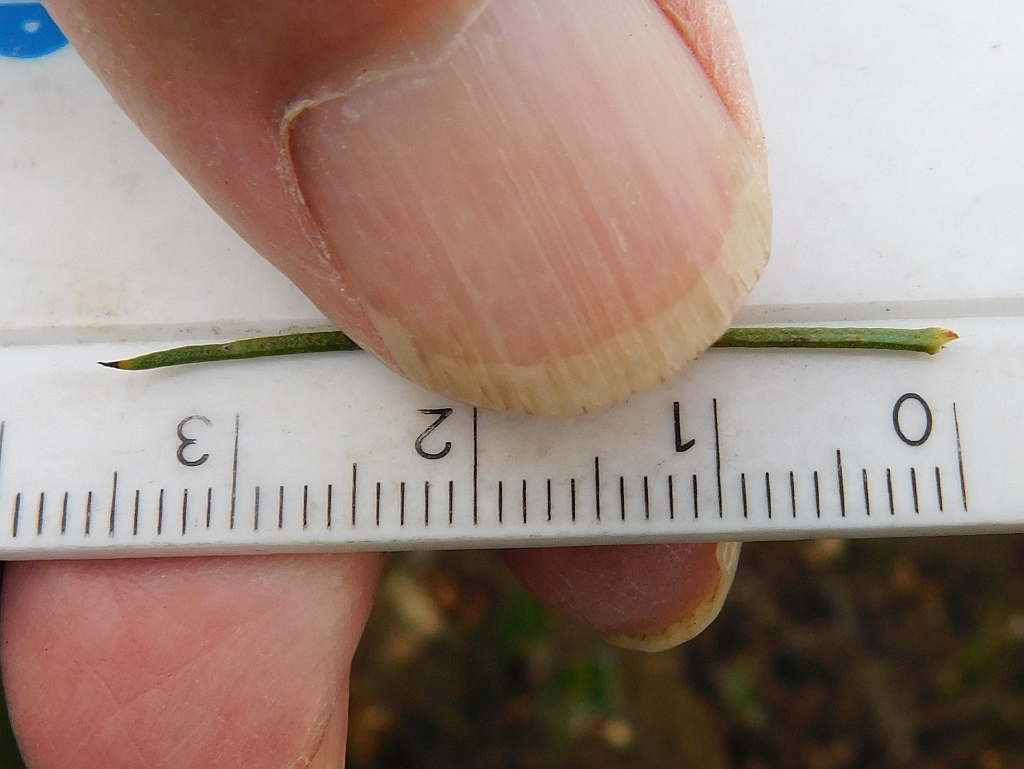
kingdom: Plantae
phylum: Tracheophyta
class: Magnoliopsida
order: Proteales
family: Proteaceae
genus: Protea
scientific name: Protea subulifolia
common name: Awl-leaf sugarbush
